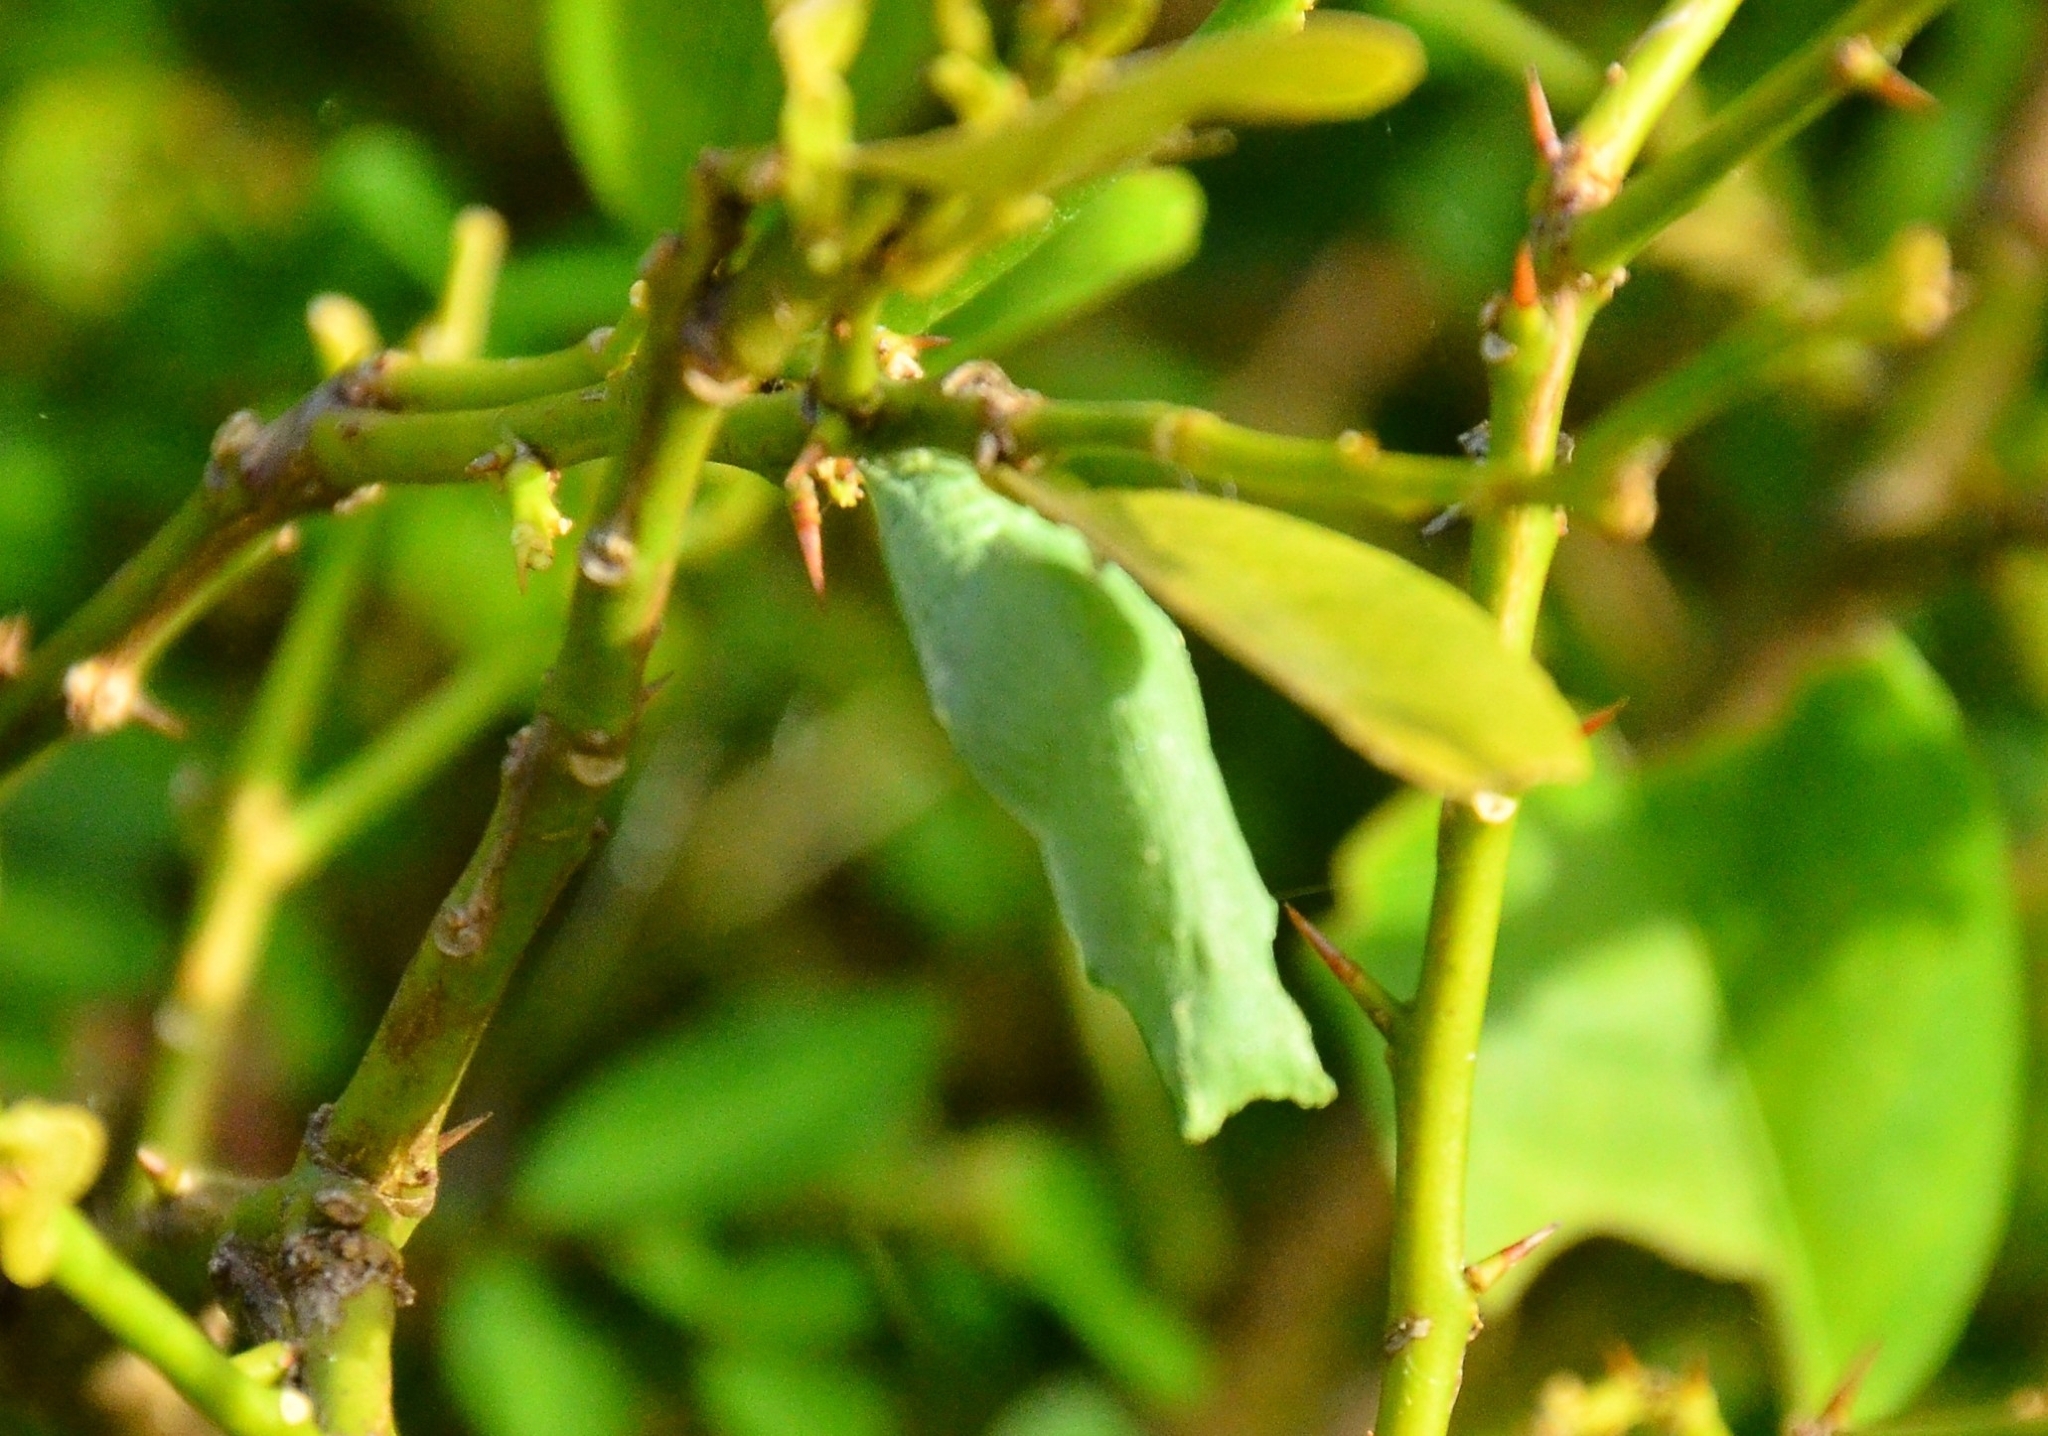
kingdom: Animalia
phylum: Arthropoda
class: Insecta
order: Lepidoptera
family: Papilionidae
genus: Papilio
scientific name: Papilio demoleus
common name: Lime butterfly
